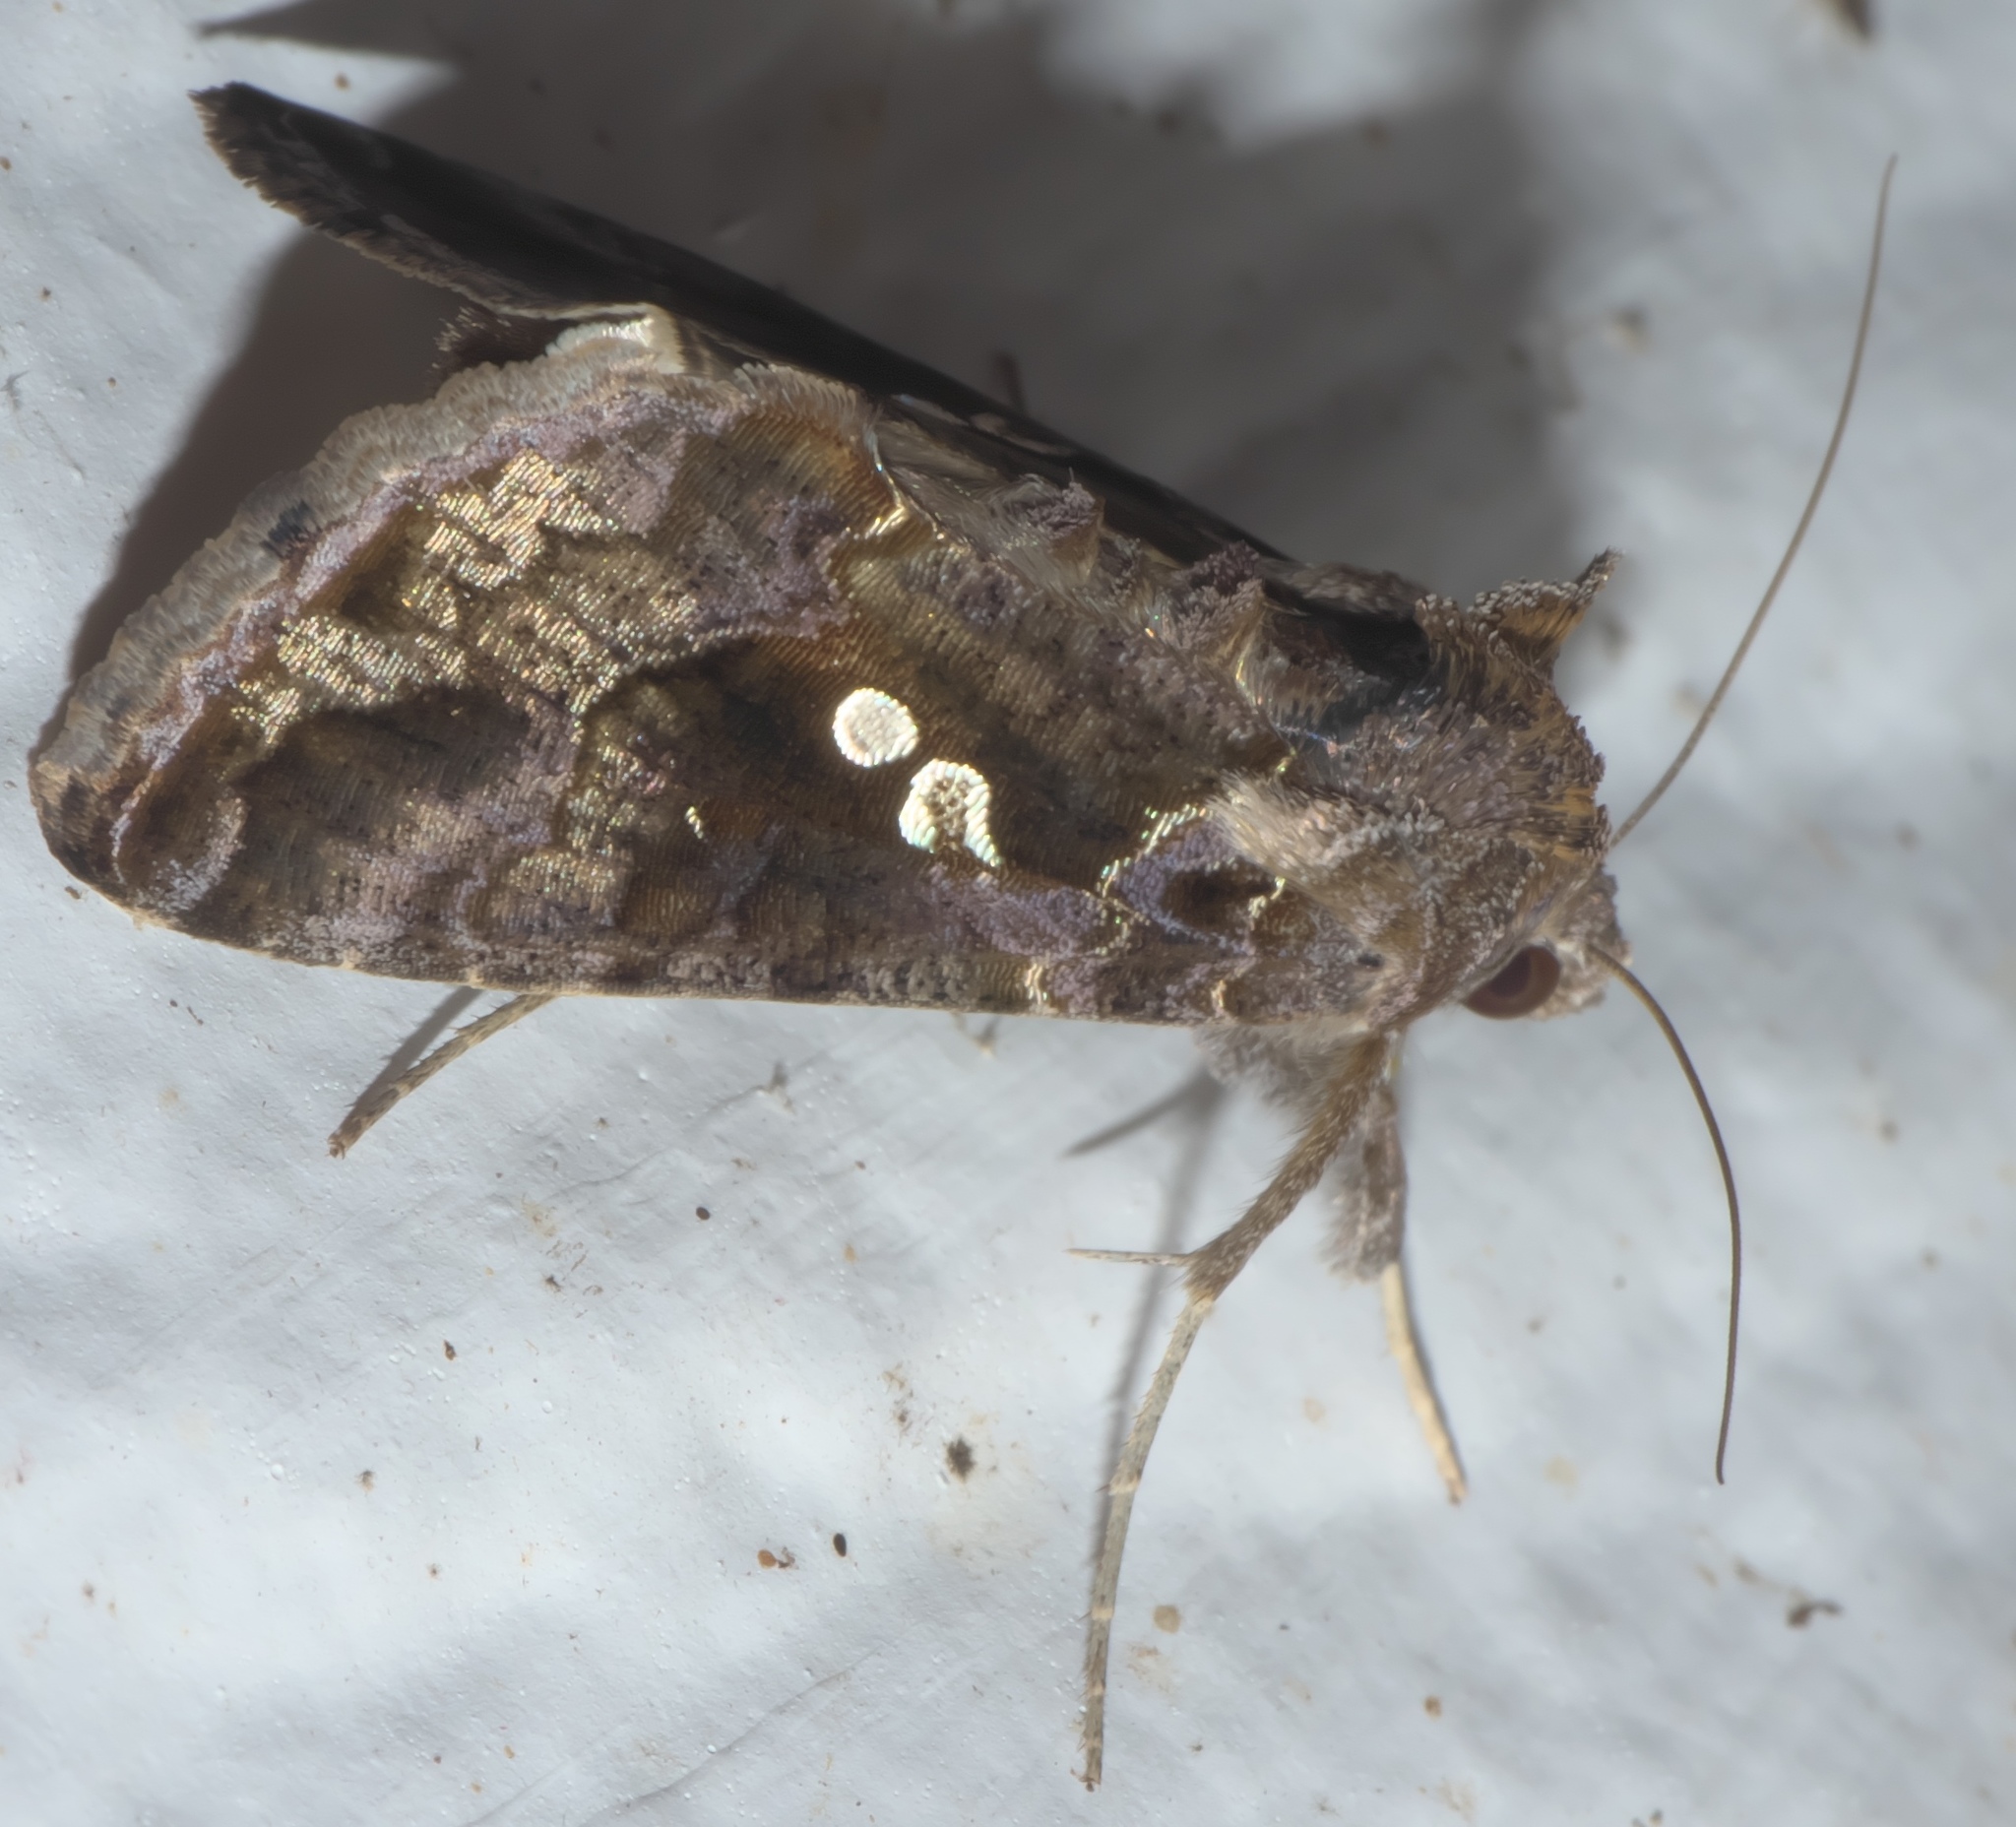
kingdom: Animalia
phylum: Arthropoda
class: Insecta
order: Lepidoptera
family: Noctuidae
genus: Chrysodeixis
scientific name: Chrysodeixis includens
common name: Cutworm moth
